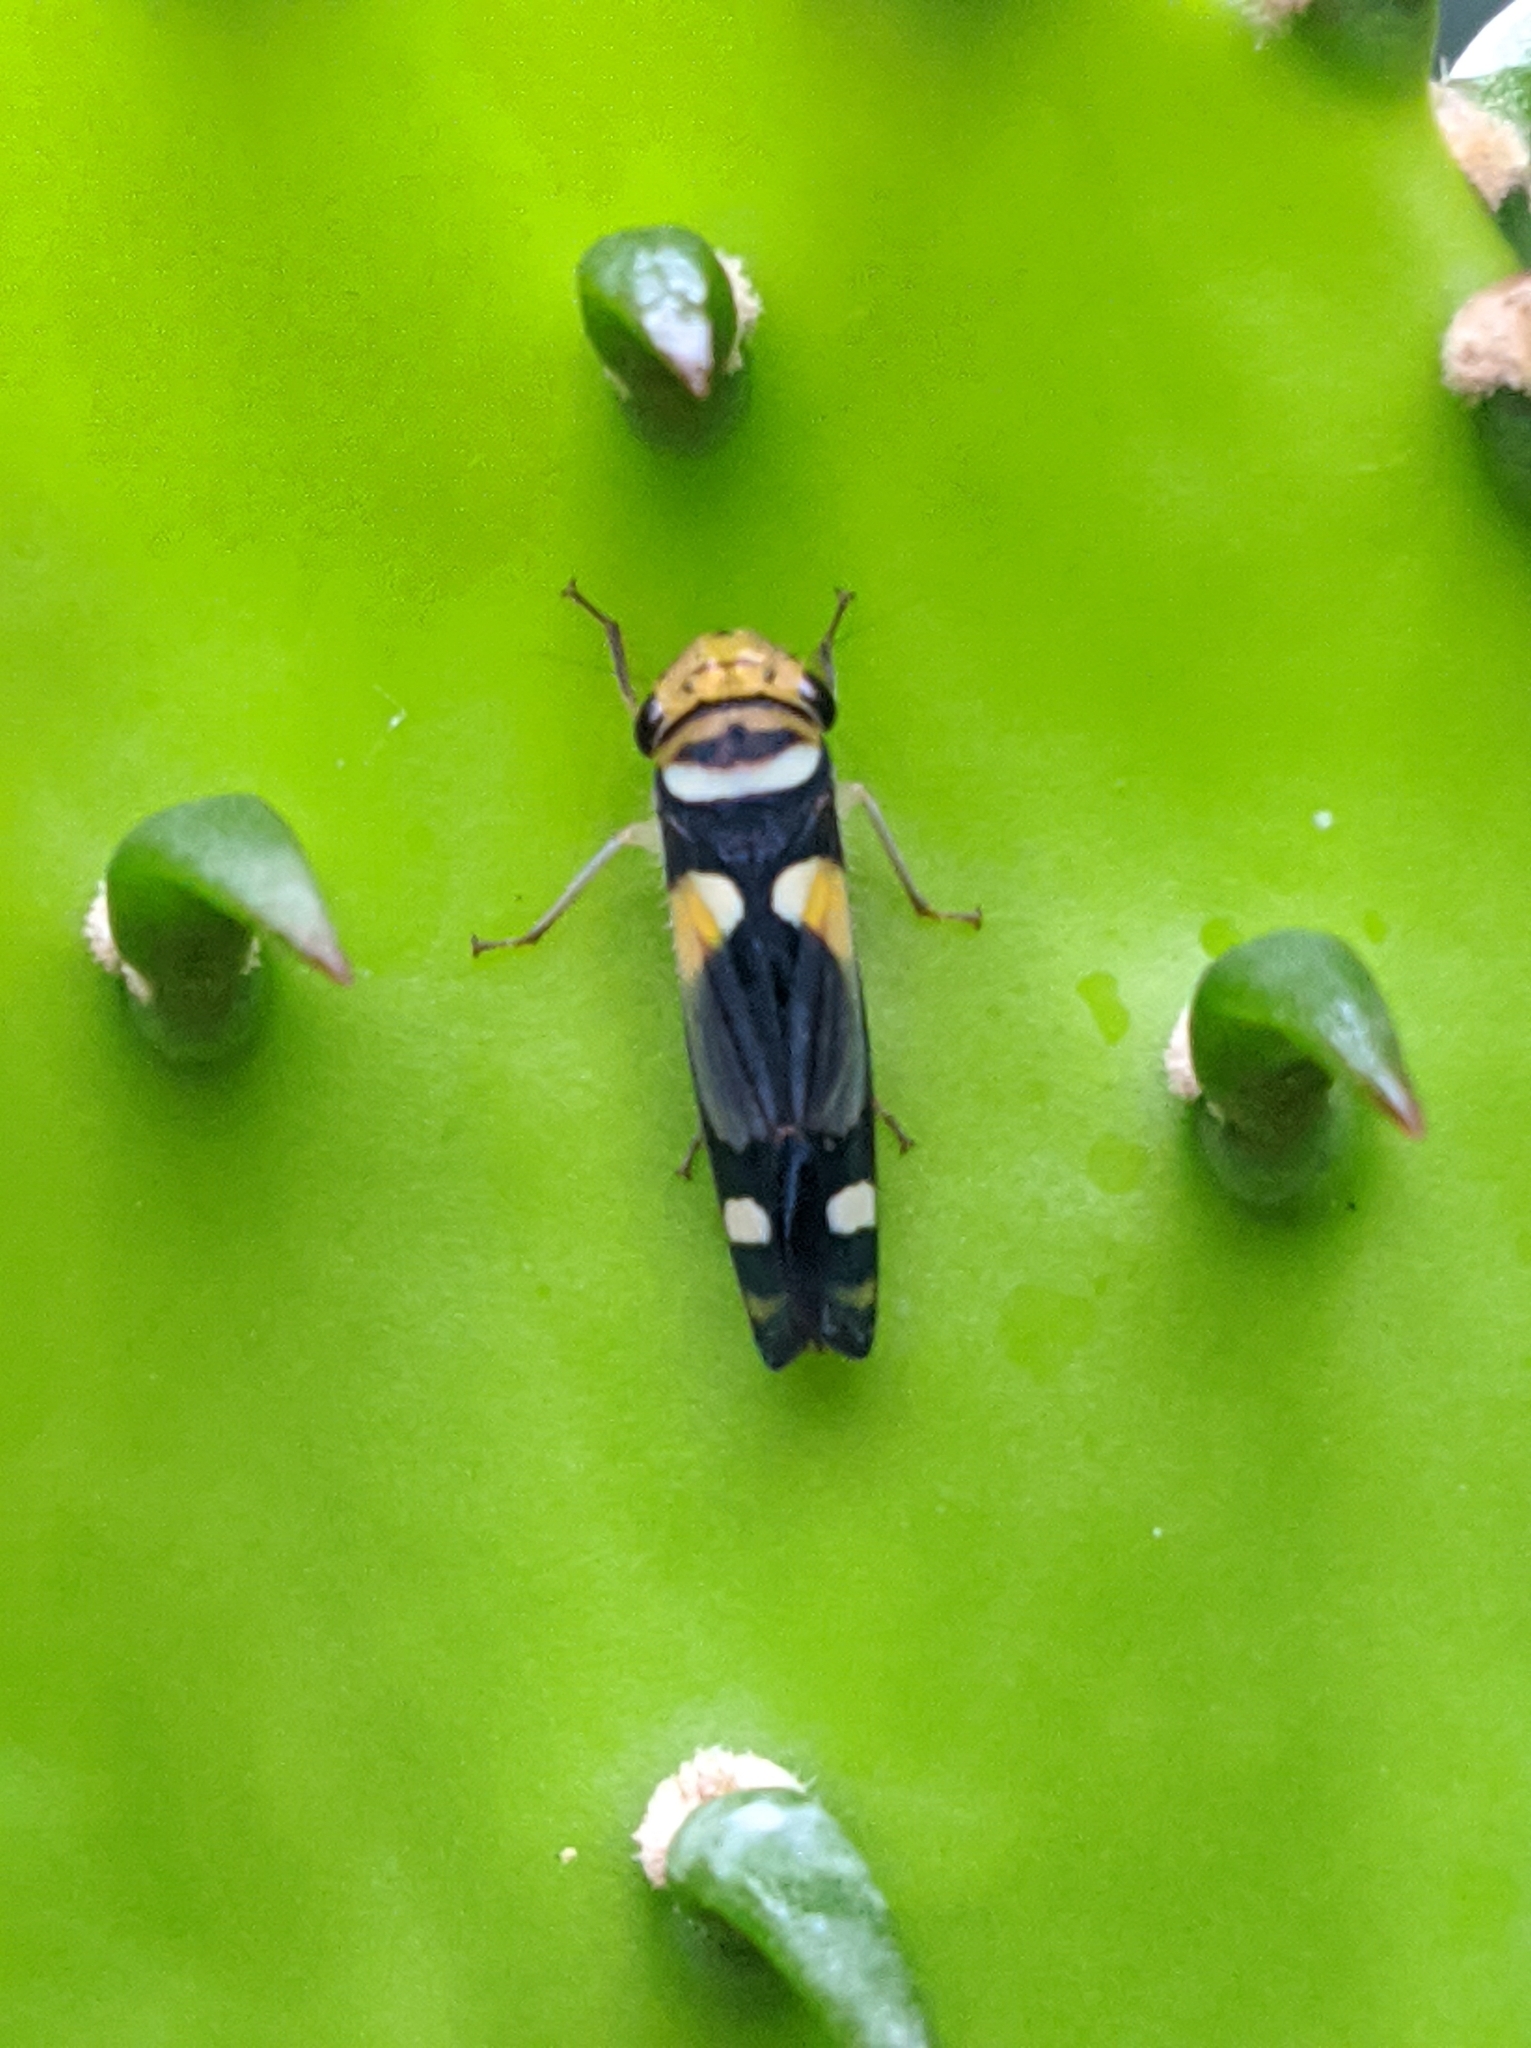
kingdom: Animalia
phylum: Arthropoda
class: Insecta
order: Hemiptera
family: Cicadellidae
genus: Dilobopterus
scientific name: Dilobopterus stolli
